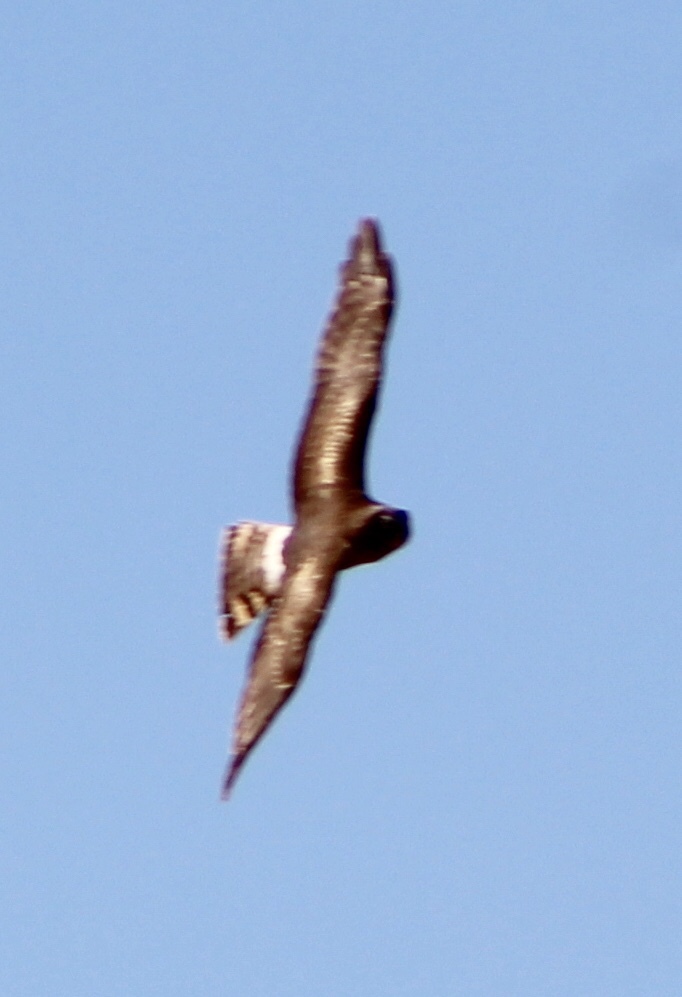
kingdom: Animalia
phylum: Chordata
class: Aves
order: Accipitriformes
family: Accipitridae
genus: Circus
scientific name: Circus cyaneus
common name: Hen harrier
